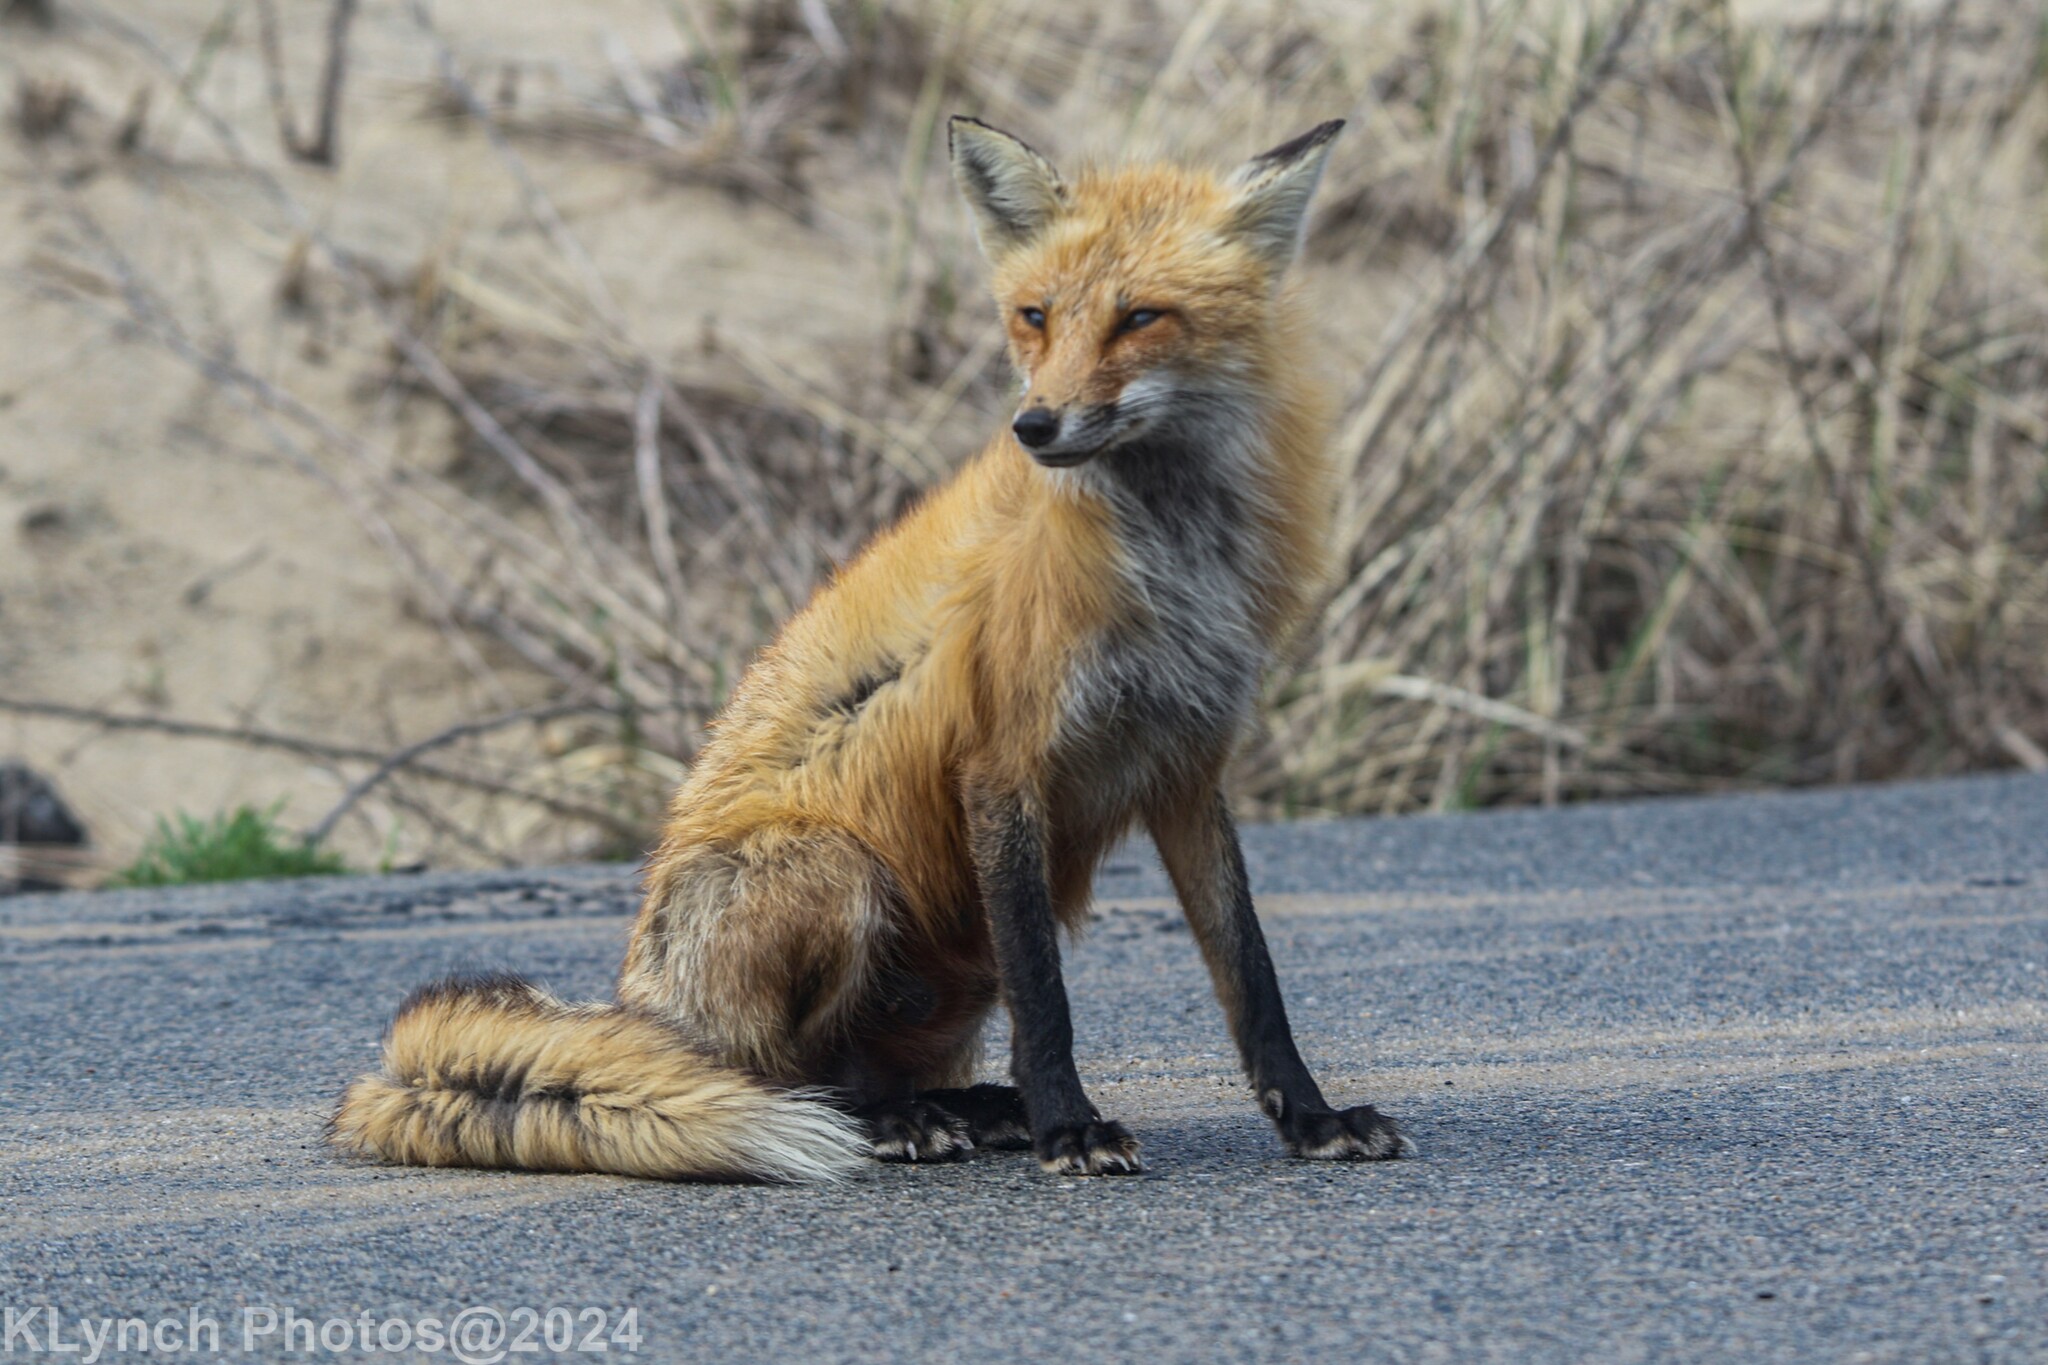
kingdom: Animalia
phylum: Chordata
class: Mammalia
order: Carnivora
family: Canidae
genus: Vulpes
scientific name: Vulpes vulpes
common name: Red fox
